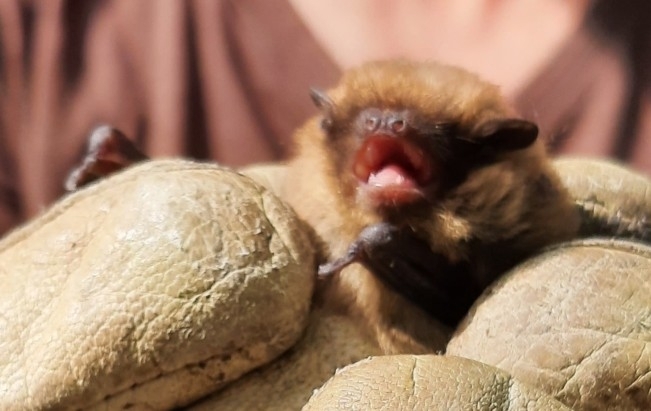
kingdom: Animalia
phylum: Chordata
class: Mammalia
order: Chiroptera
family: Vespertilionidae
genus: Pipistrellus
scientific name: Pipistrellus pygmaeus
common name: Soprano pipistrelle
